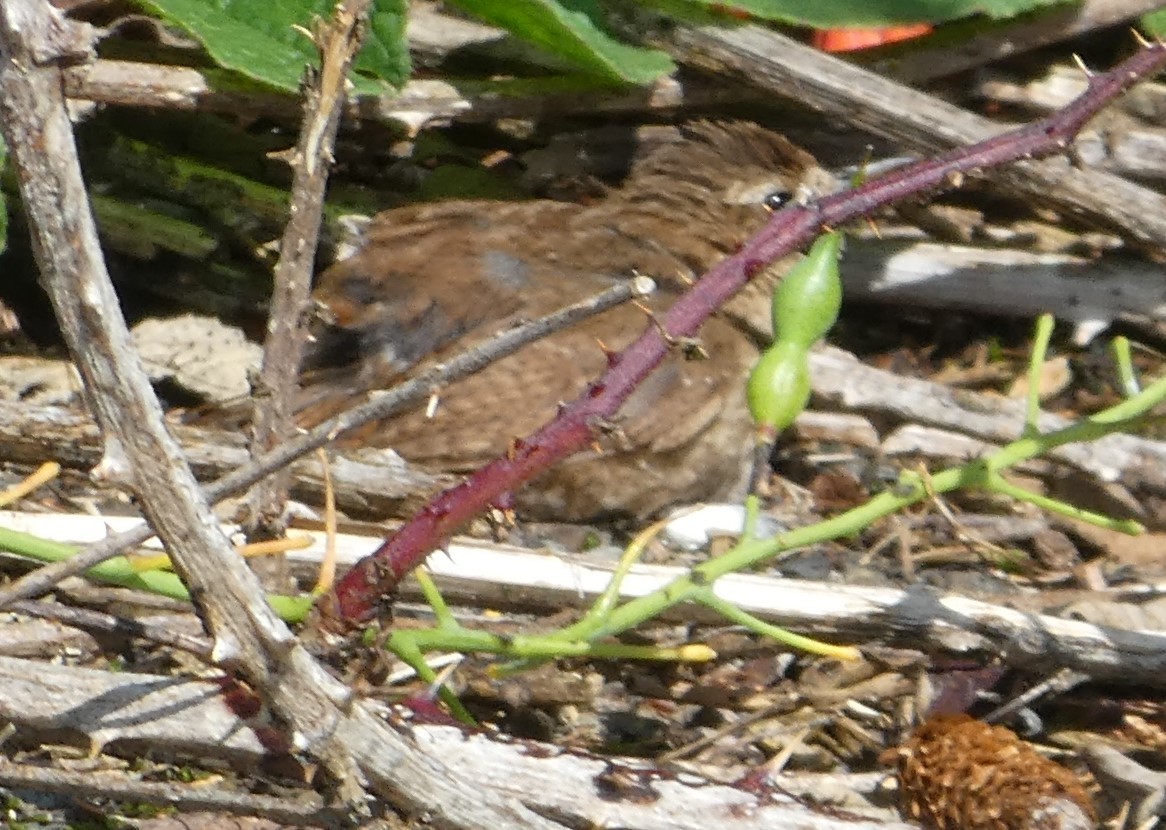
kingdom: Animalia
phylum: Chordata
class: Aves
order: Passeriformes
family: Troglodytidae
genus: Troglodytes
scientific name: Troglodytes troglodytes
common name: Eurasian wren
